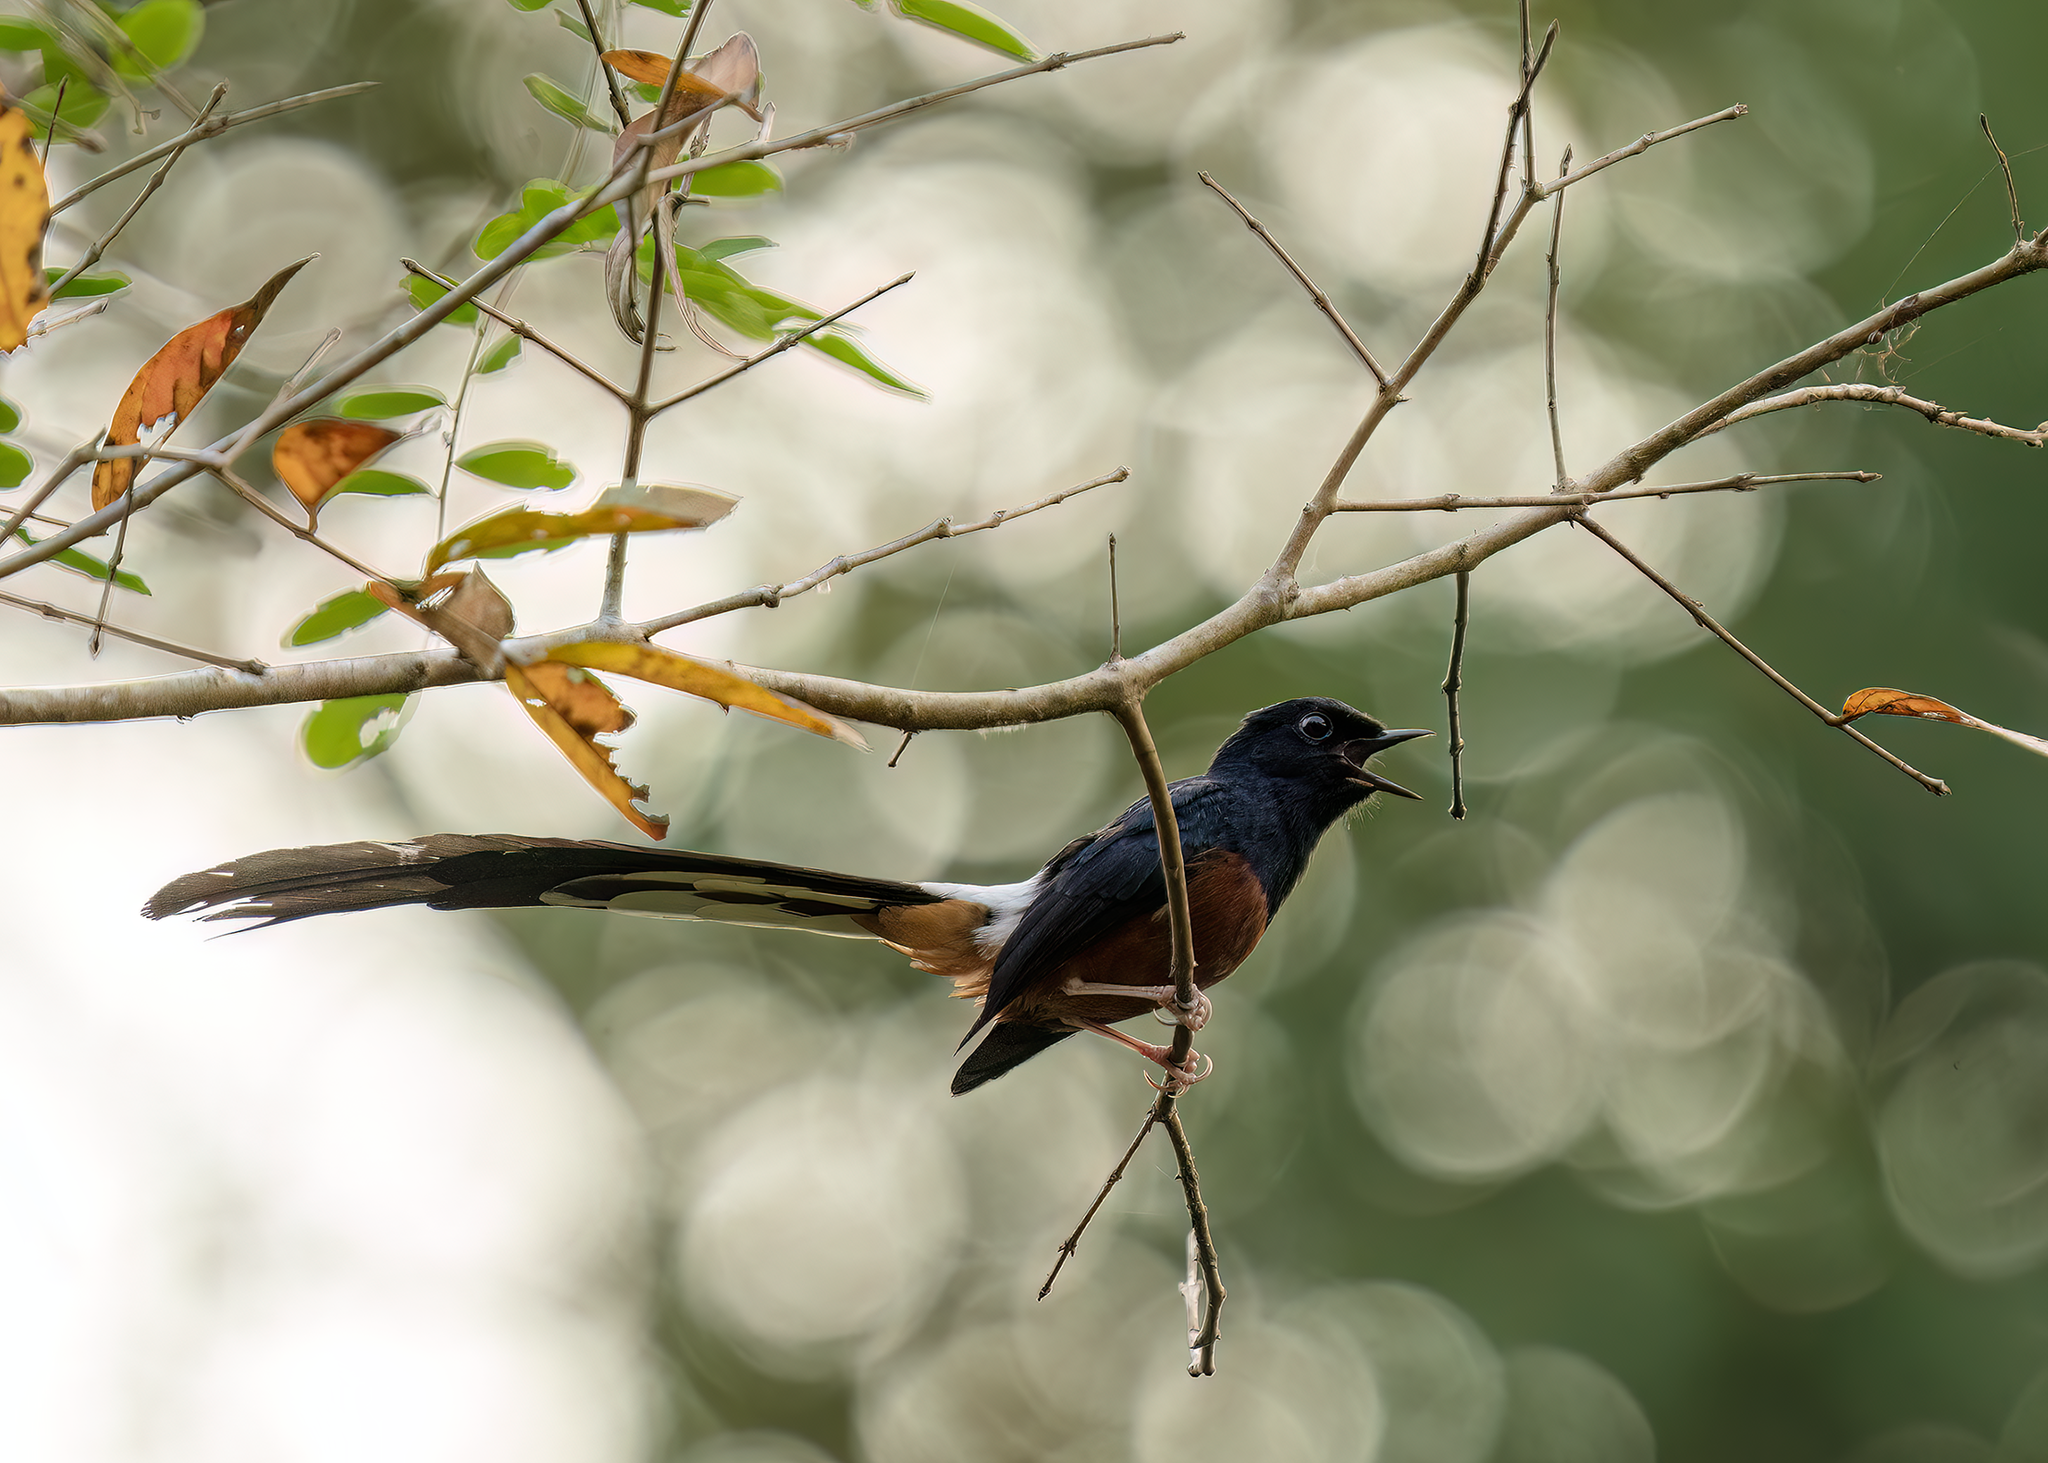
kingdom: Animalia
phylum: Chordata
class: Aves
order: Passeriformes
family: Muscicapidae
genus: Copsychus
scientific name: Copsychus malabaricus
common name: White-rumped shama
